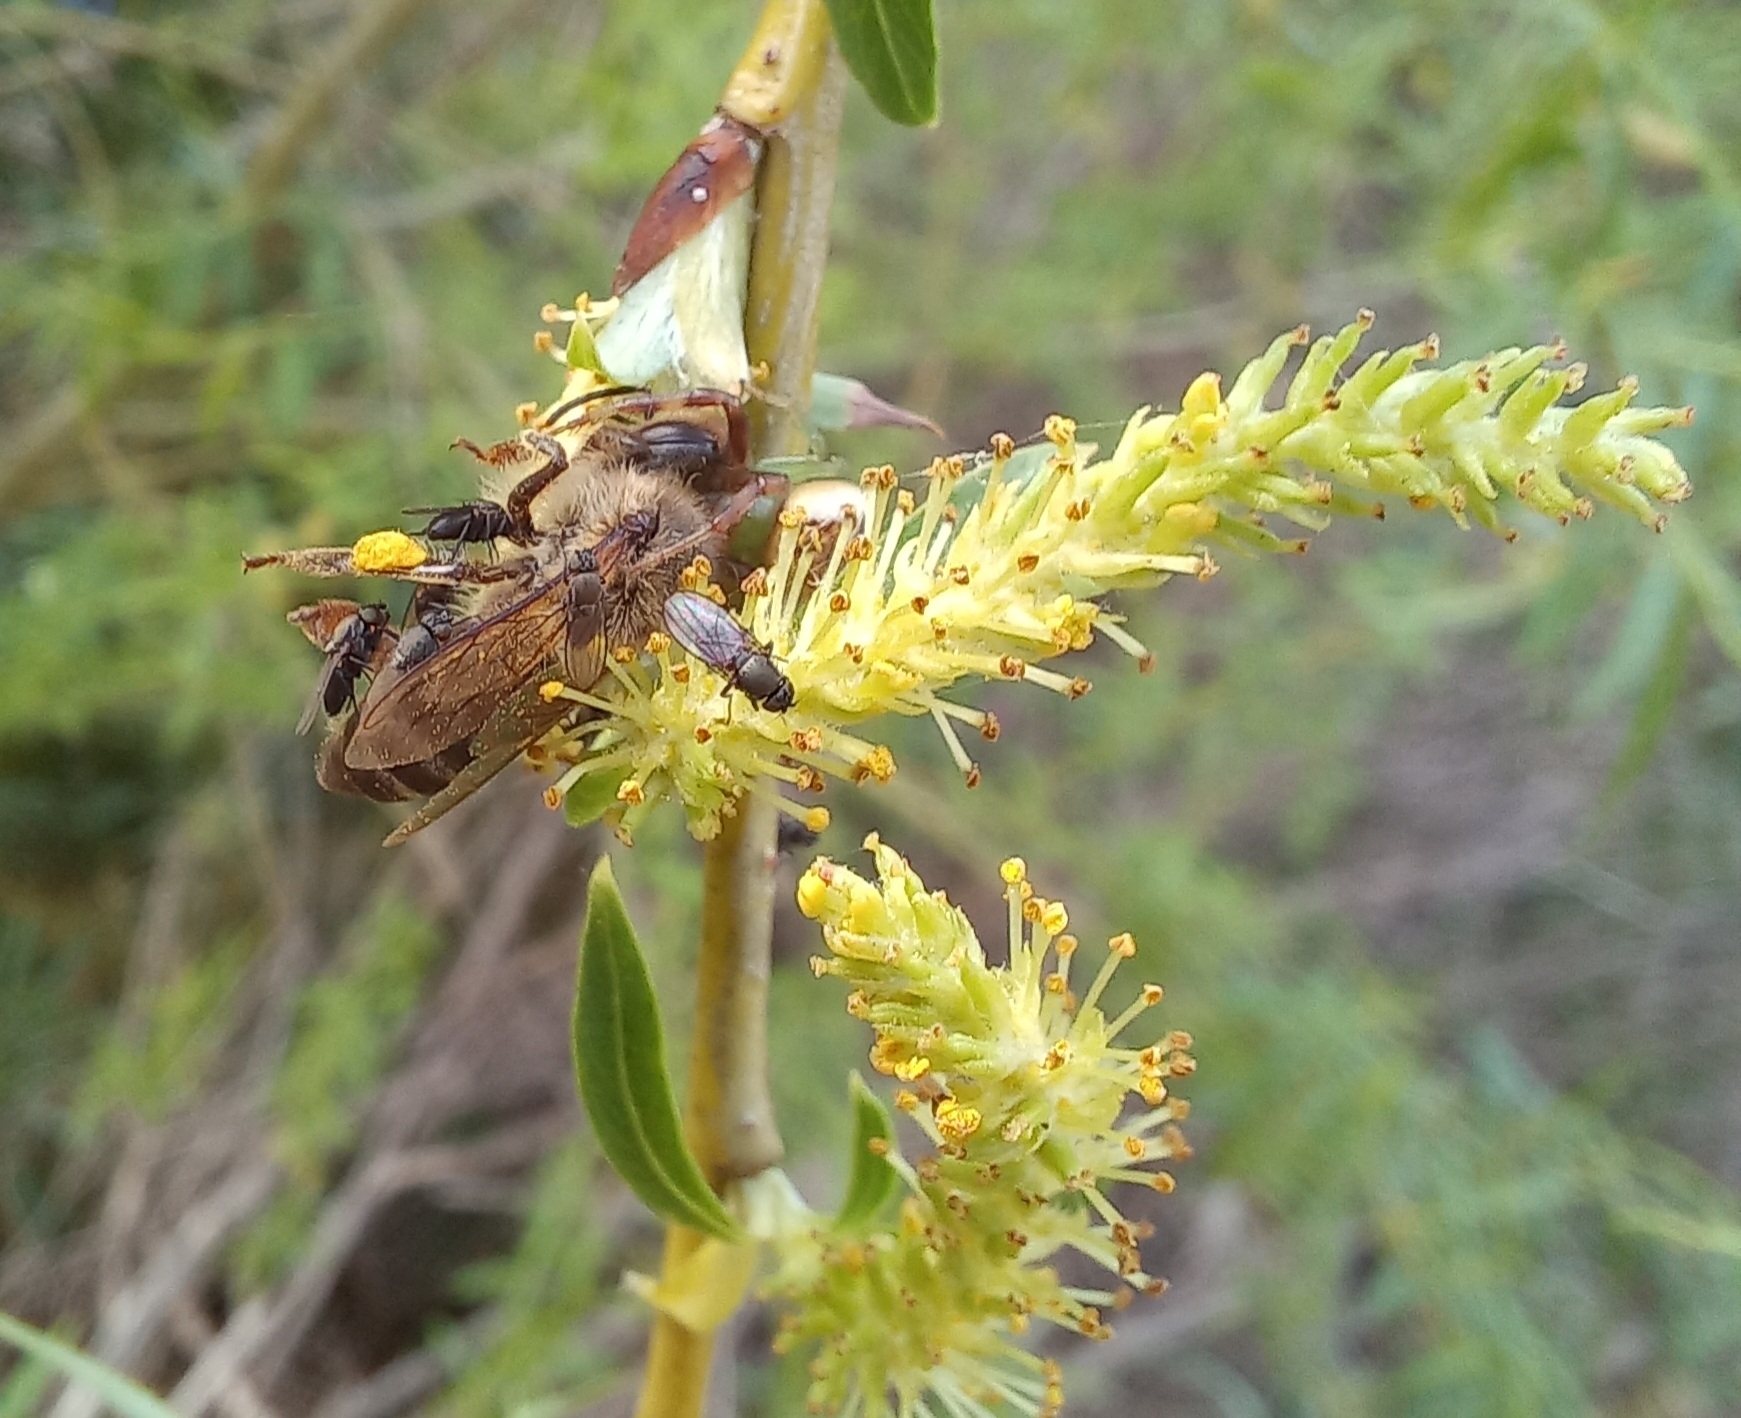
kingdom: Animalia
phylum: Arthropoda
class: Insecta
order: Hymenoptera
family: Apidae
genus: Apis
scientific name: Apis mellifera
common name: Honey bee
